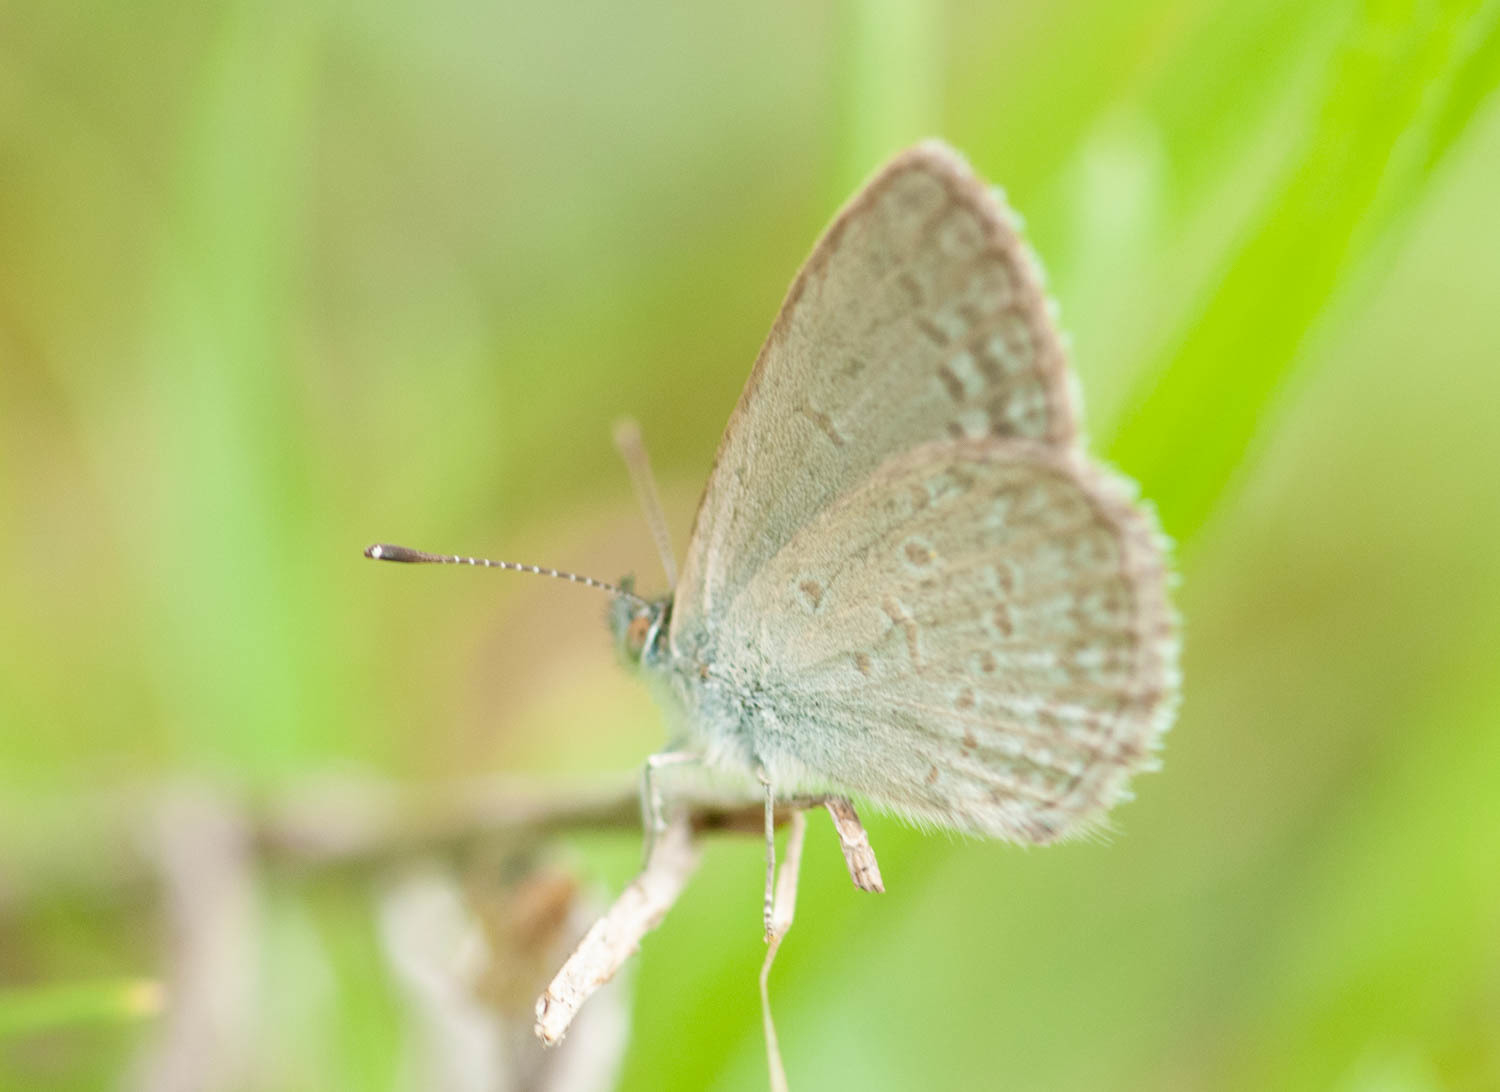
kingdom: Animalia
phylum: Arthropoda
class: Insecta
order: Lepidoptera
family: Lycaenidae
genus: Zizina
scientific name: Zizina labradus
